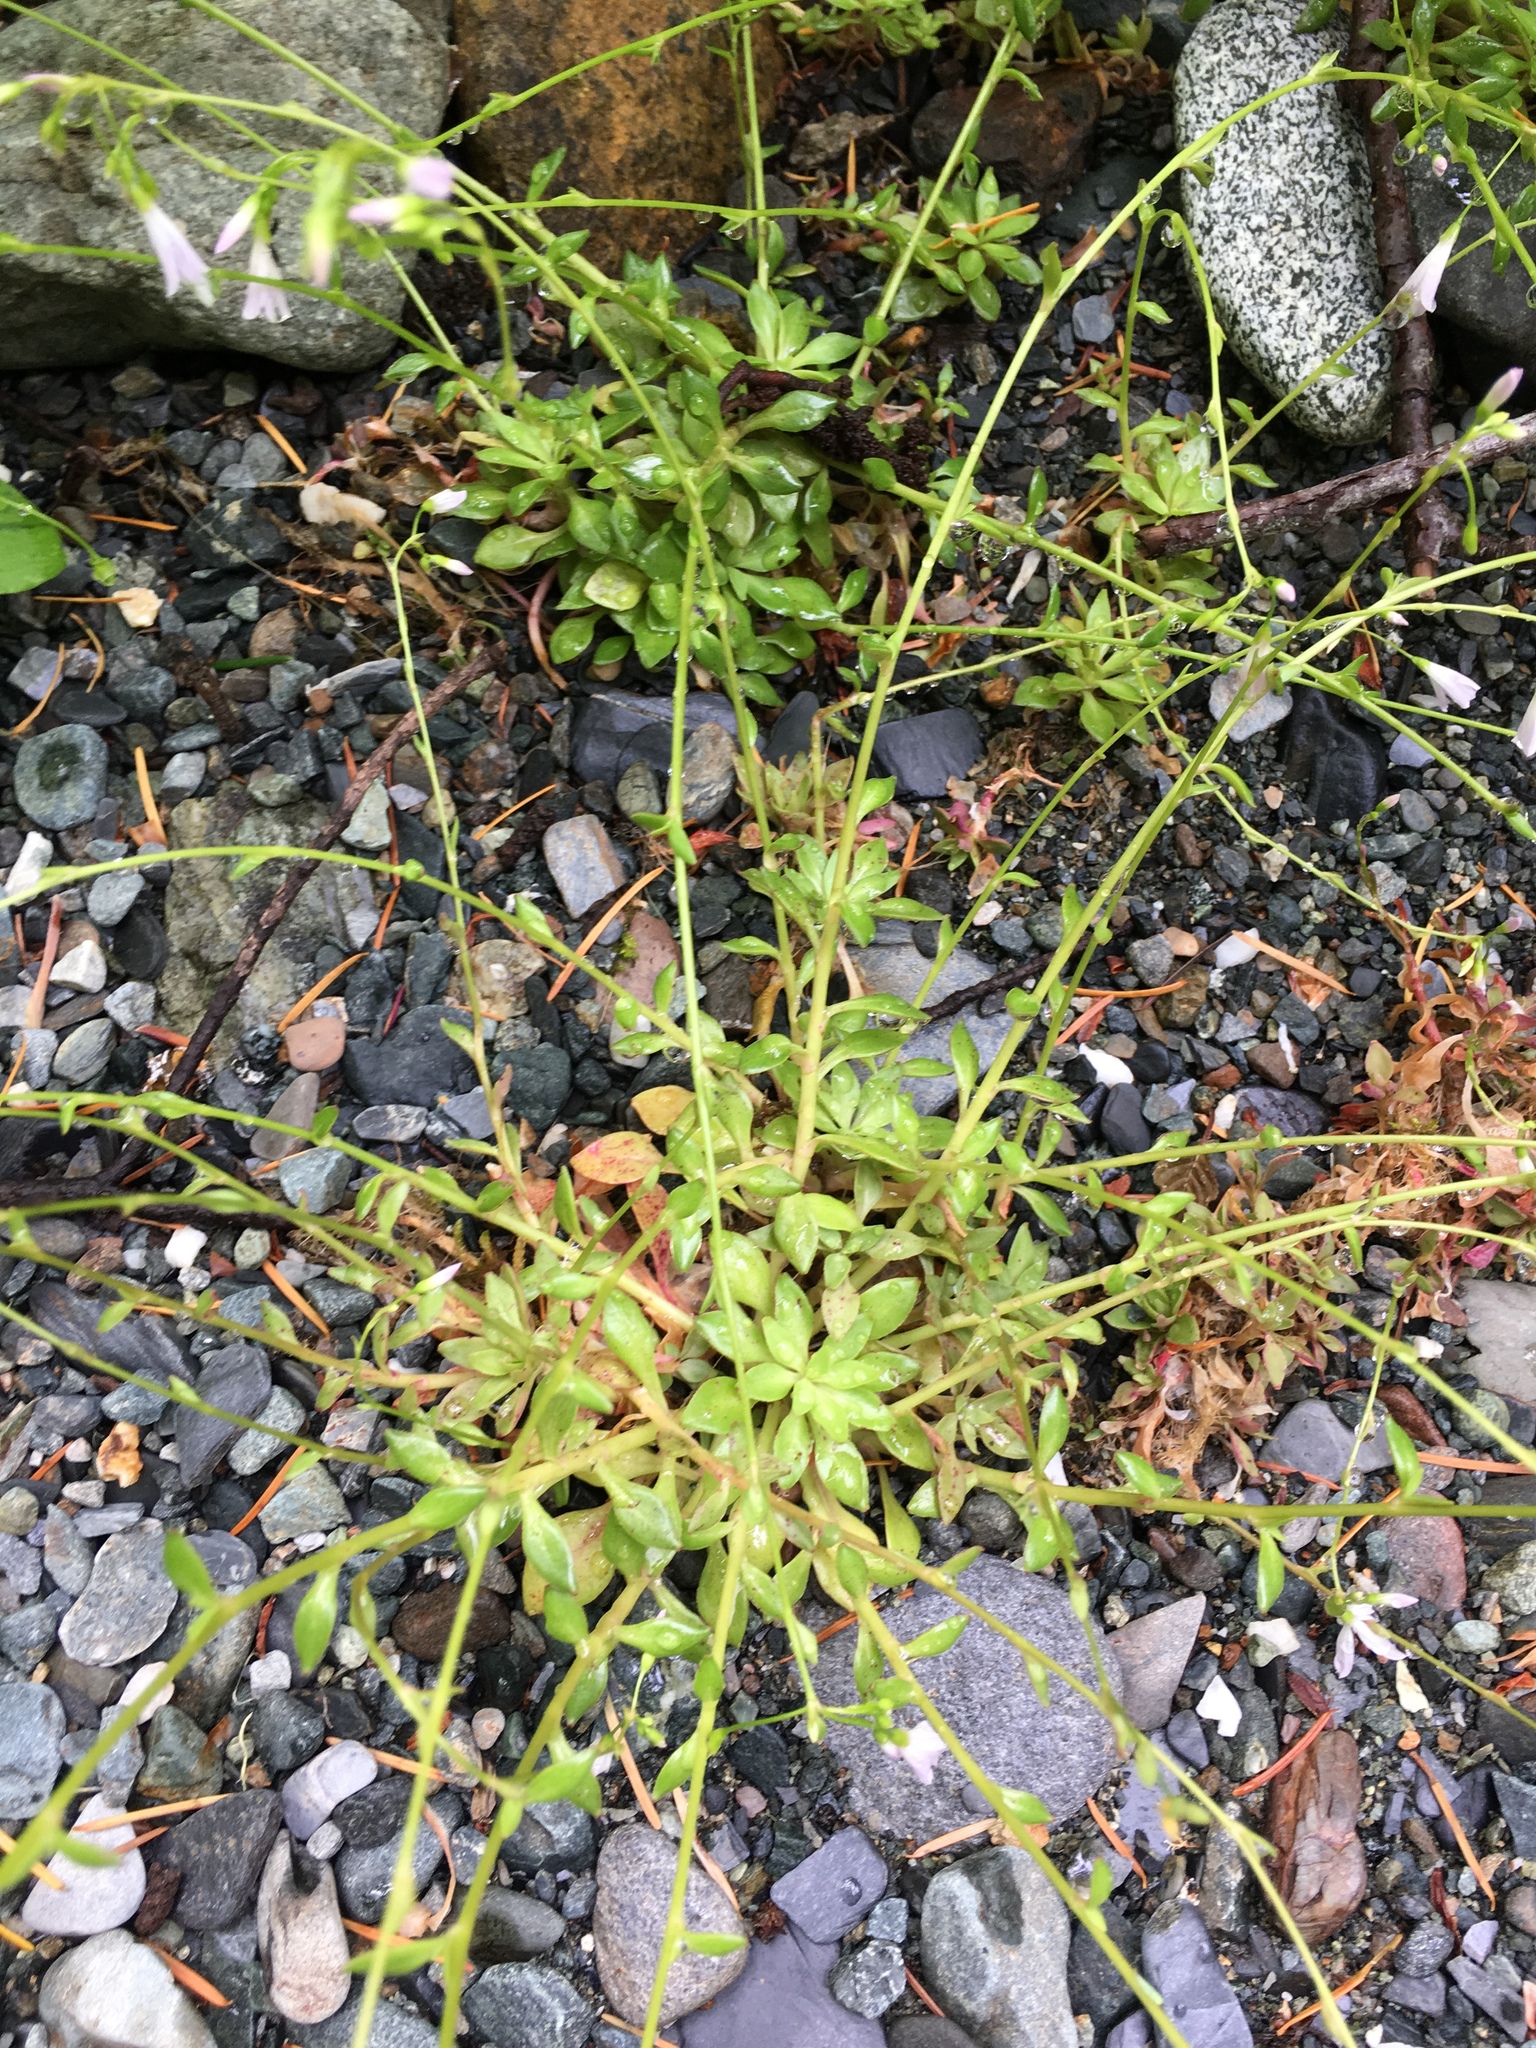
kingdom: Plantae
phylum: Tracheophyta
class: Magnoliopsida
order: Caryophyllales
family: Montiaceae
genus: Montia
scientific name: Montia parvifolia
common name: Small-leaved blinks
